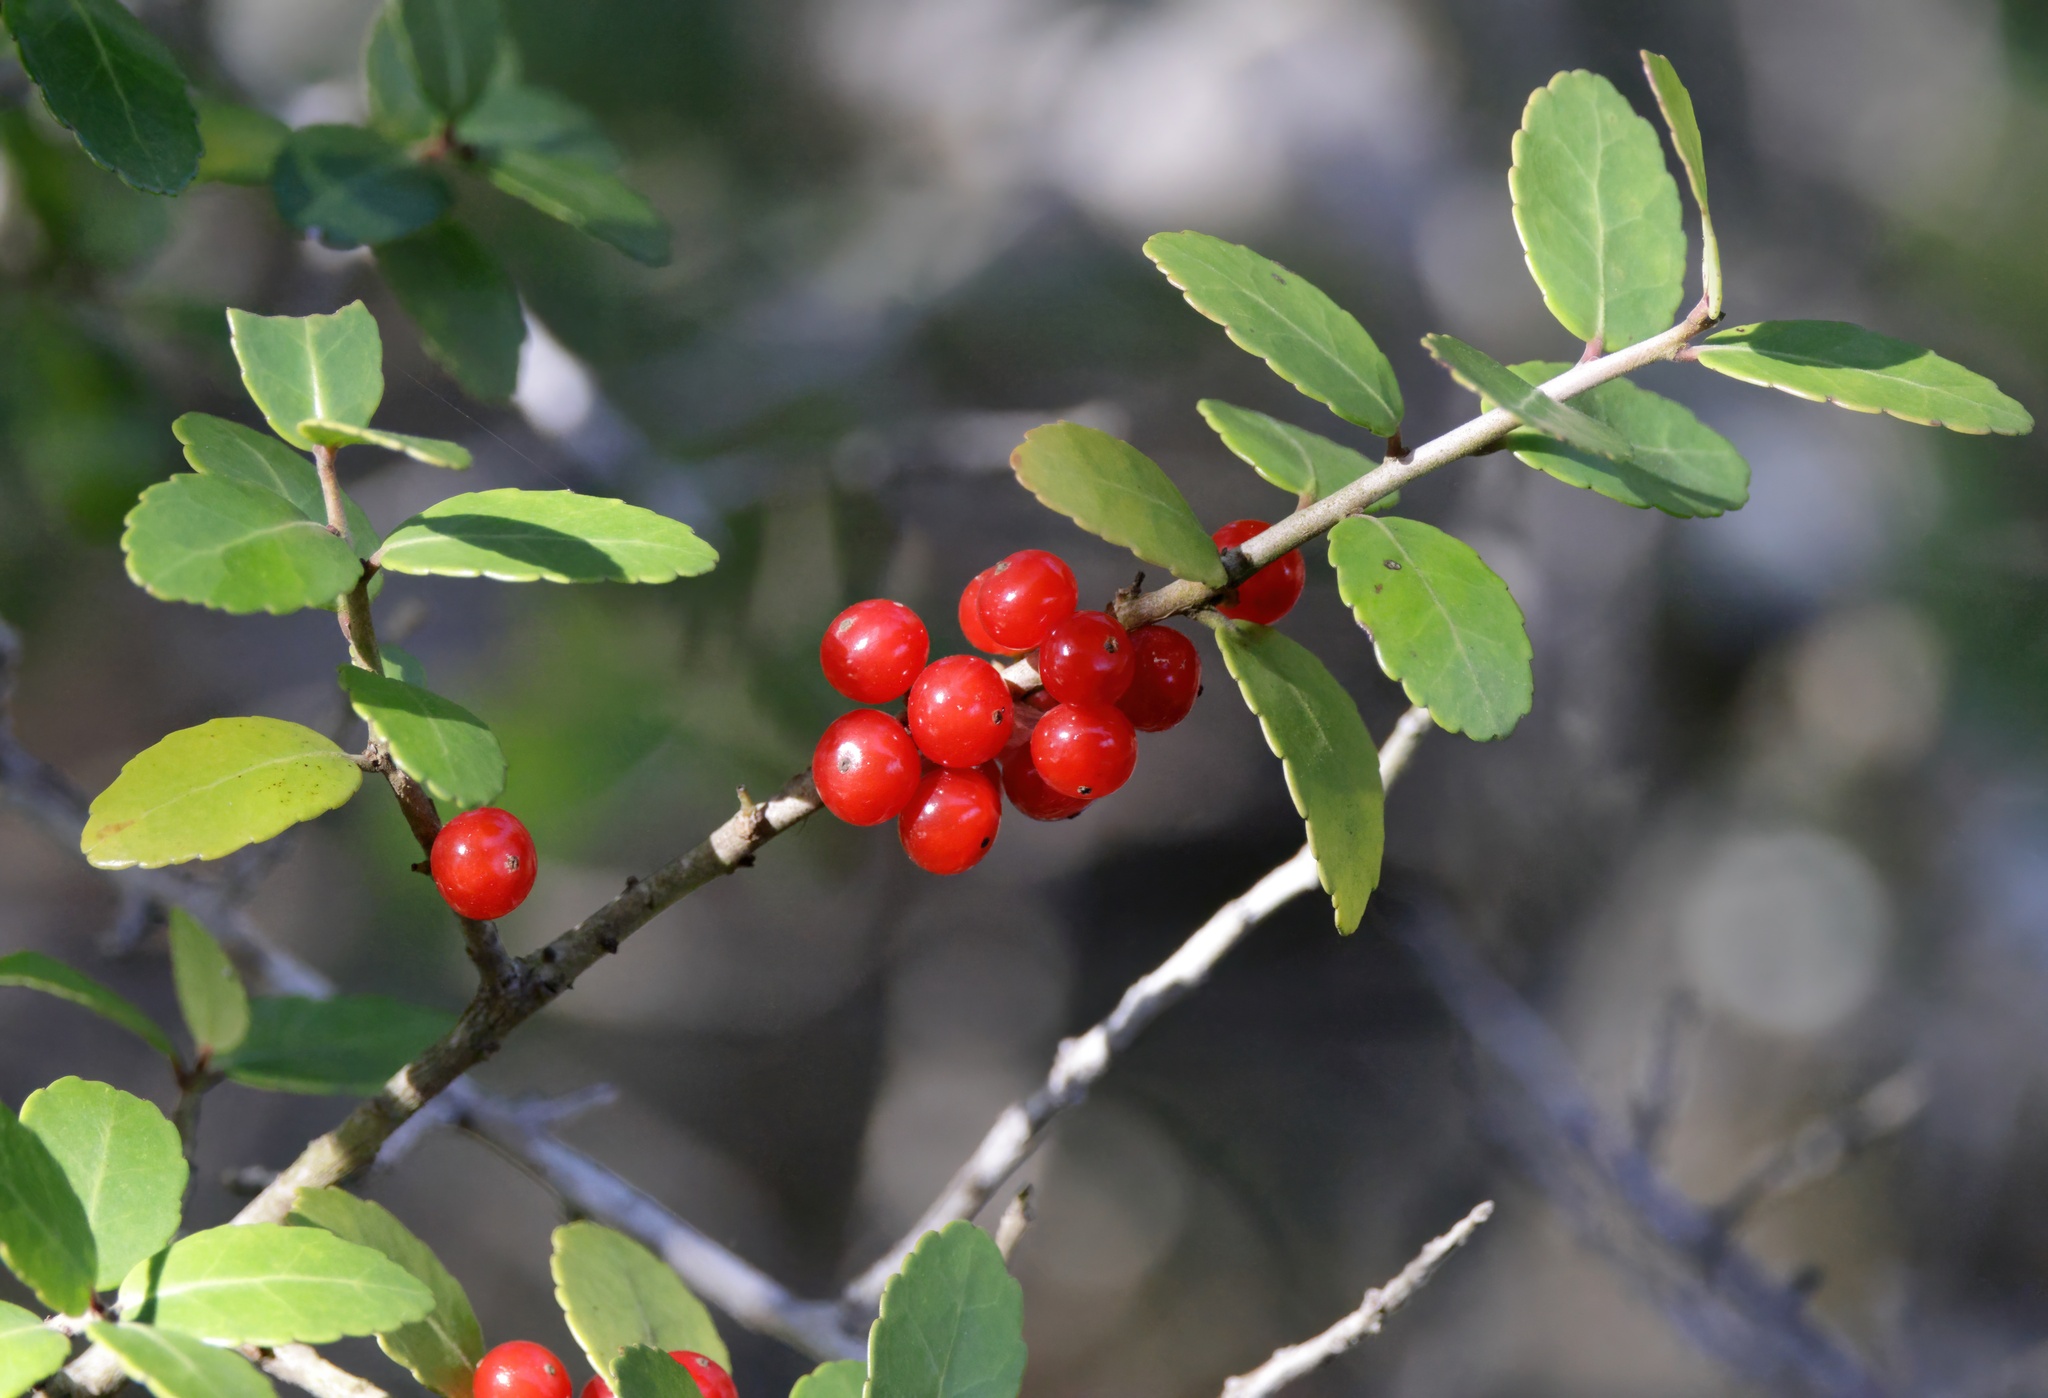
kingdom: Plantae
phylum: Tracheophyta
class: Magnoliopsida
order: Aquifoliales
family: Aquifoliaceae
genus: Ilex
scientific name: Ilex vomitoria
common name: Yaupon holly
